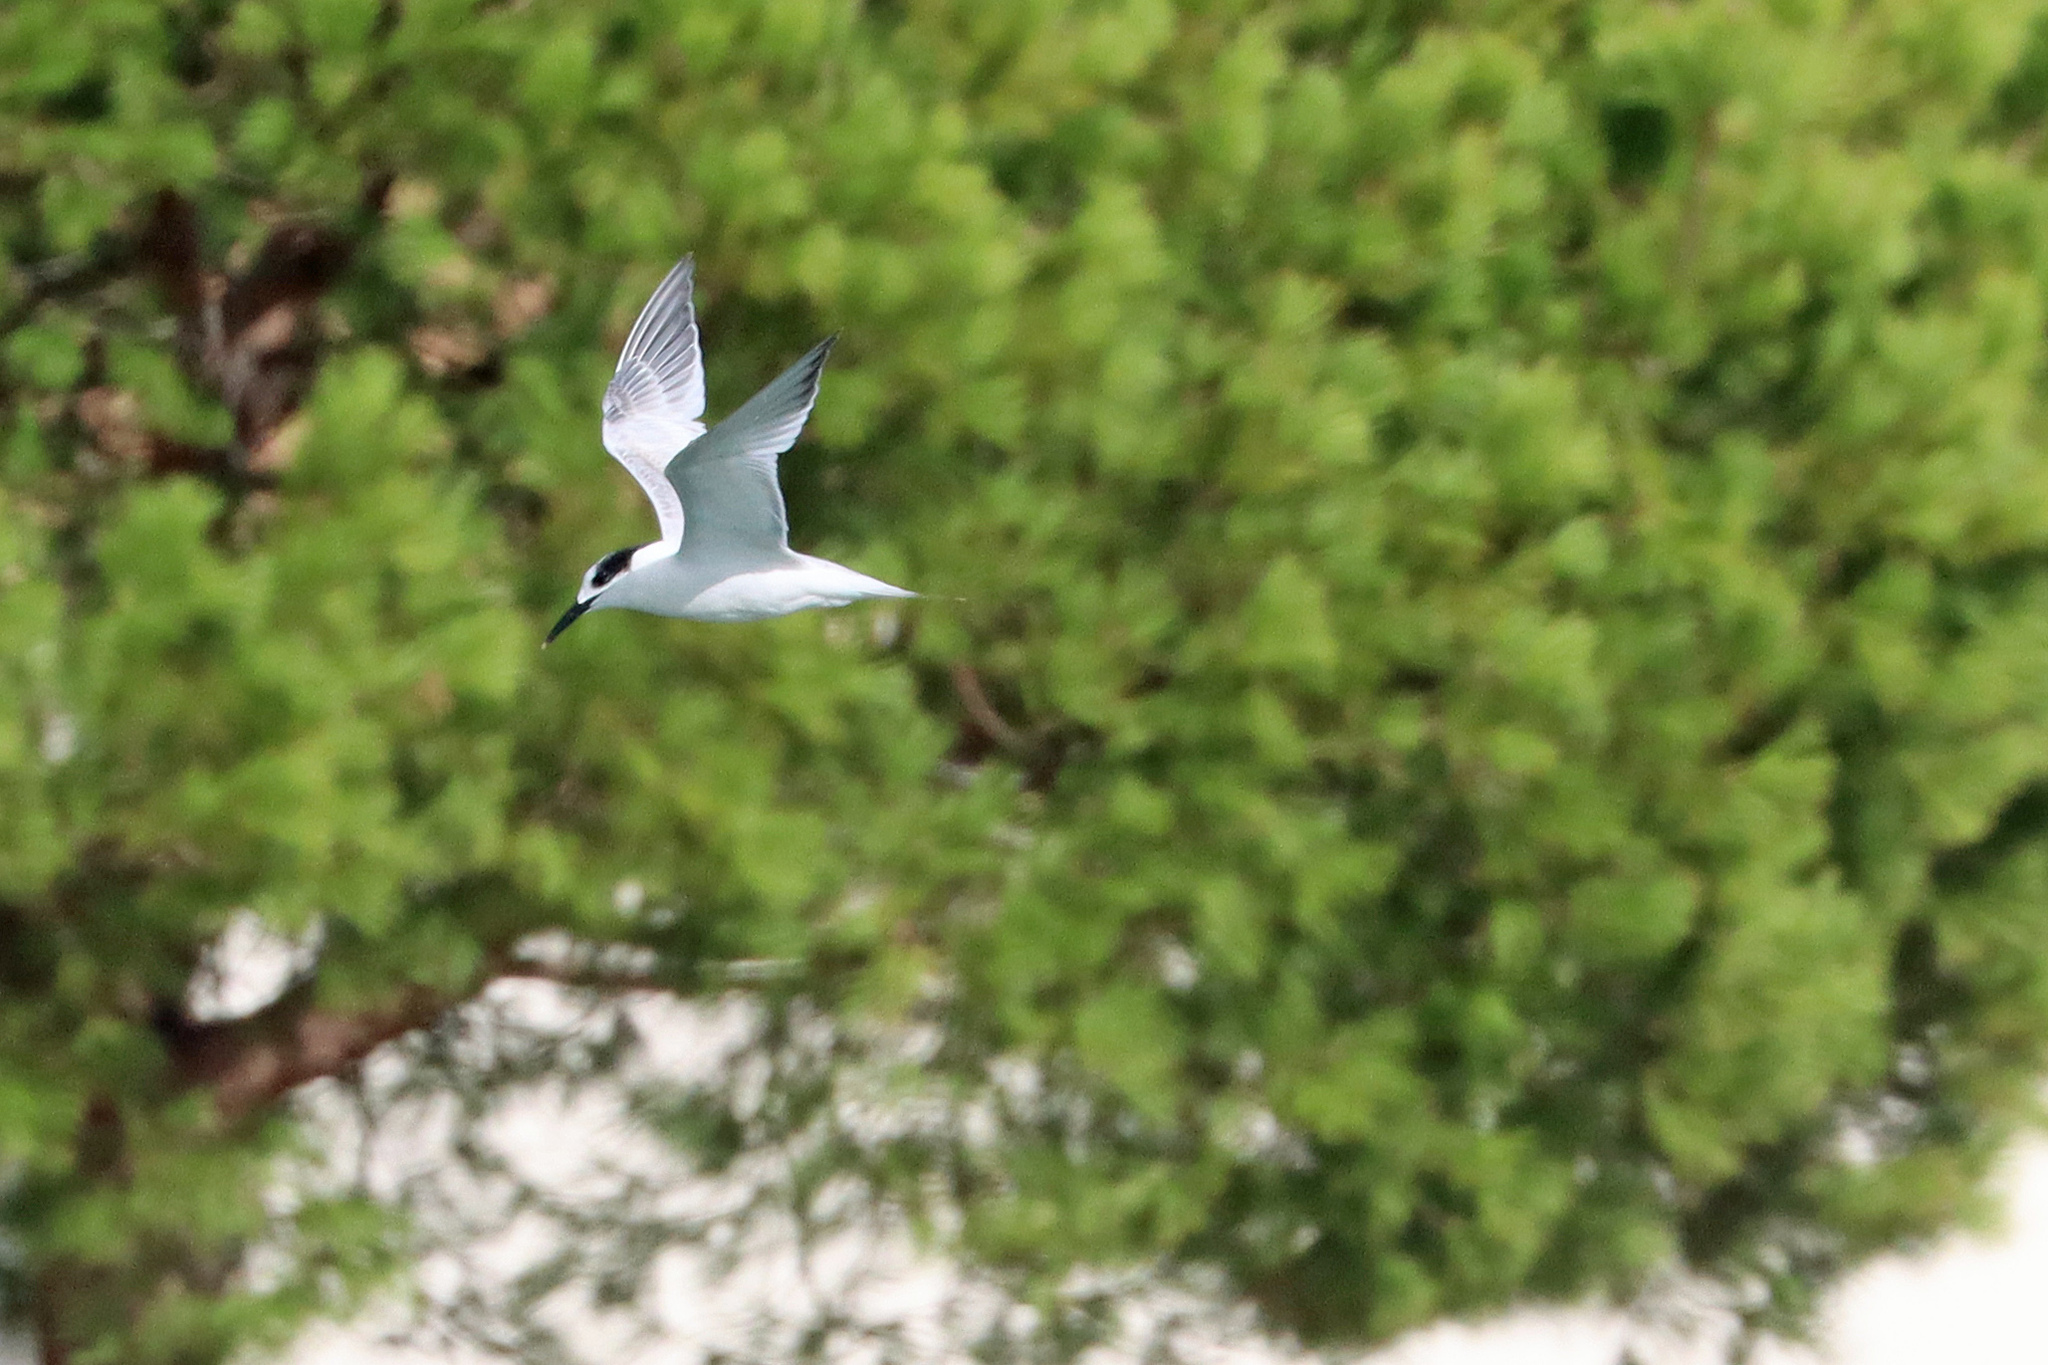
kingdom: Animalia
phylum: Chordata
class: Aves
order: Charadriiformes
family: Laridae
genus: Thalasseus
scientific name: Thalasseus sandvicensis
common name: Sandwich tern
